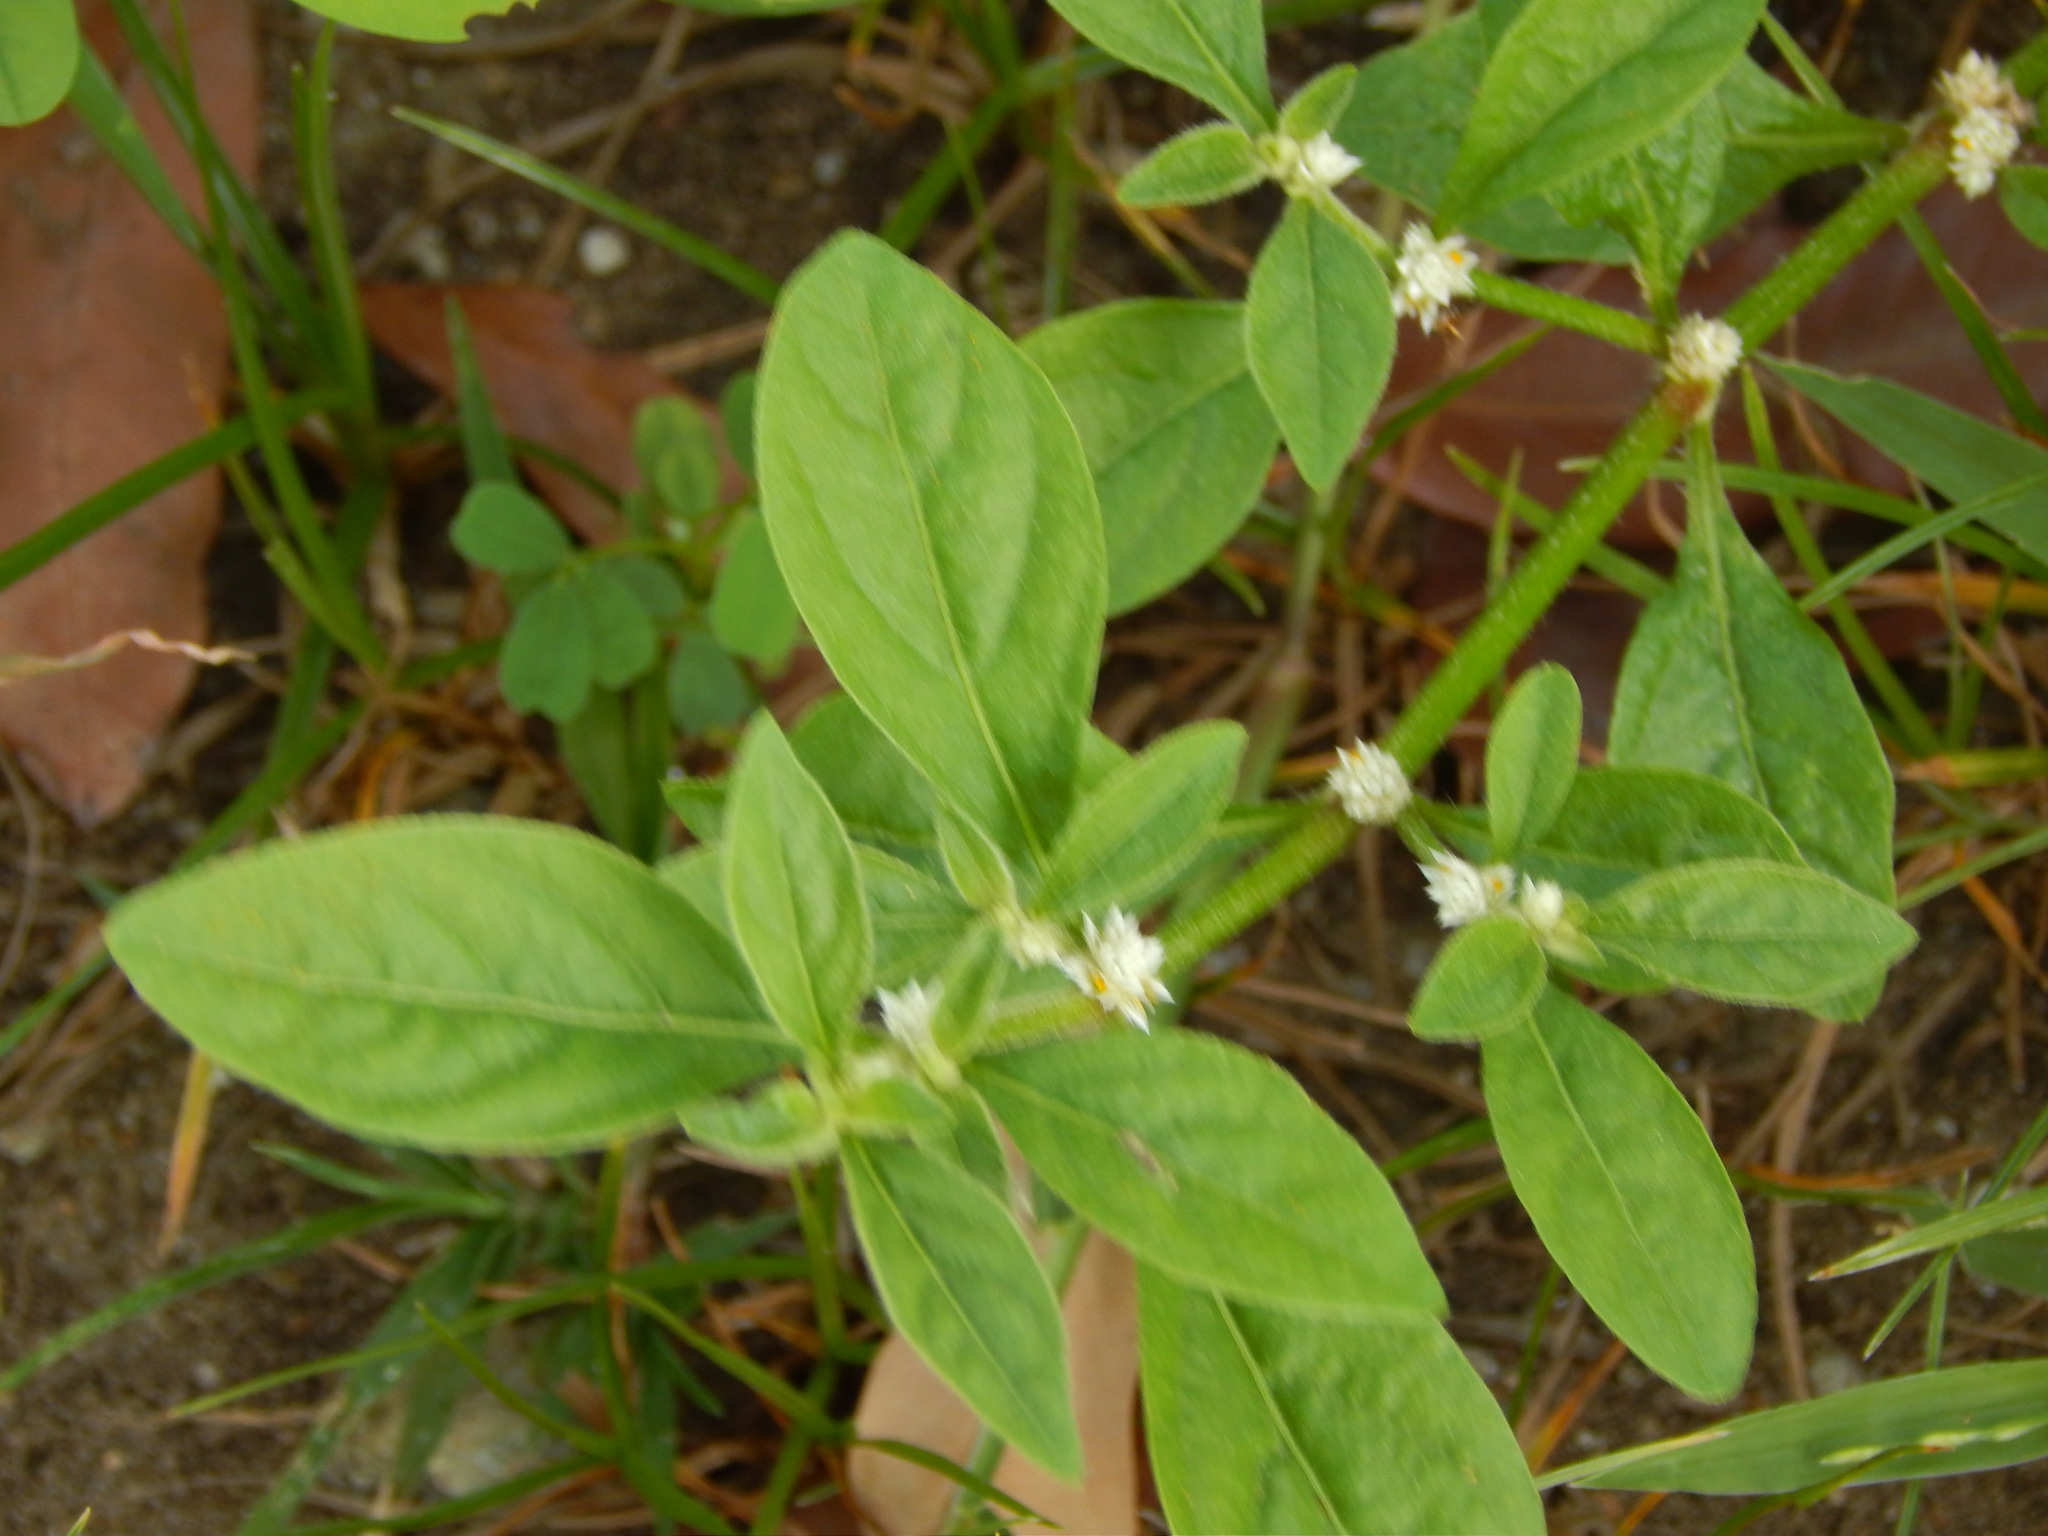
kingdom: Plantae
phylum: Tracheophyta
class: Magnoliopsida
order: Caryophyllales
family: Amaranthaceae
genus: Alternanthera
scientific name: Alternanthera ficoidea
